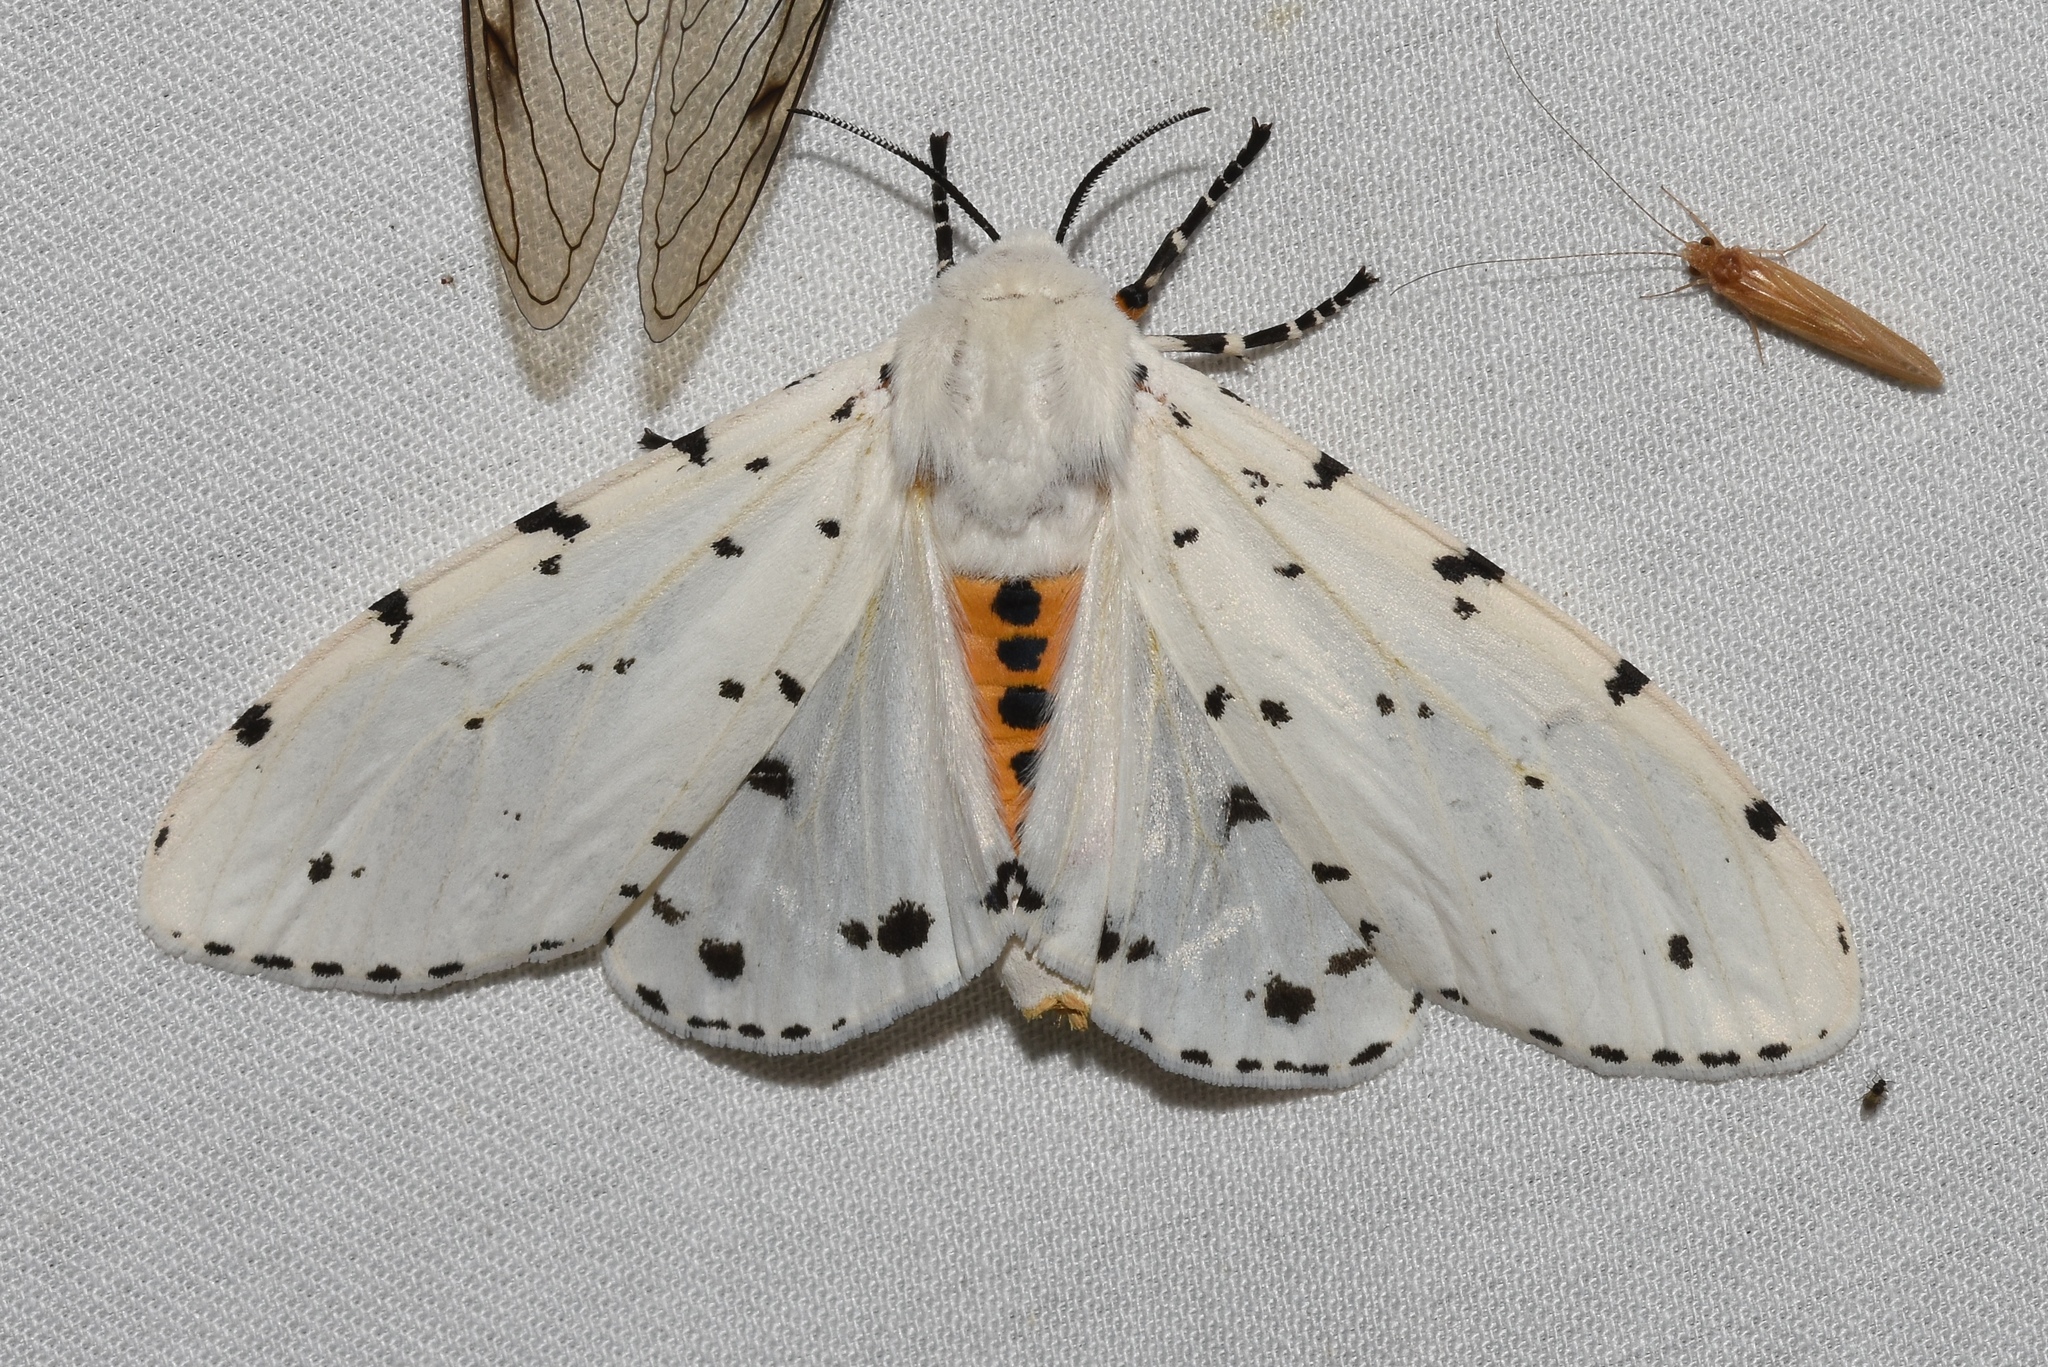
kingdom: Animalia
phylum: Arthropoda
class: Insecta
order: Lepidoptera
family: Erebidae
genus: Estigmene
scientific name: Estigmene acrea
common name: Salt marsh moth
